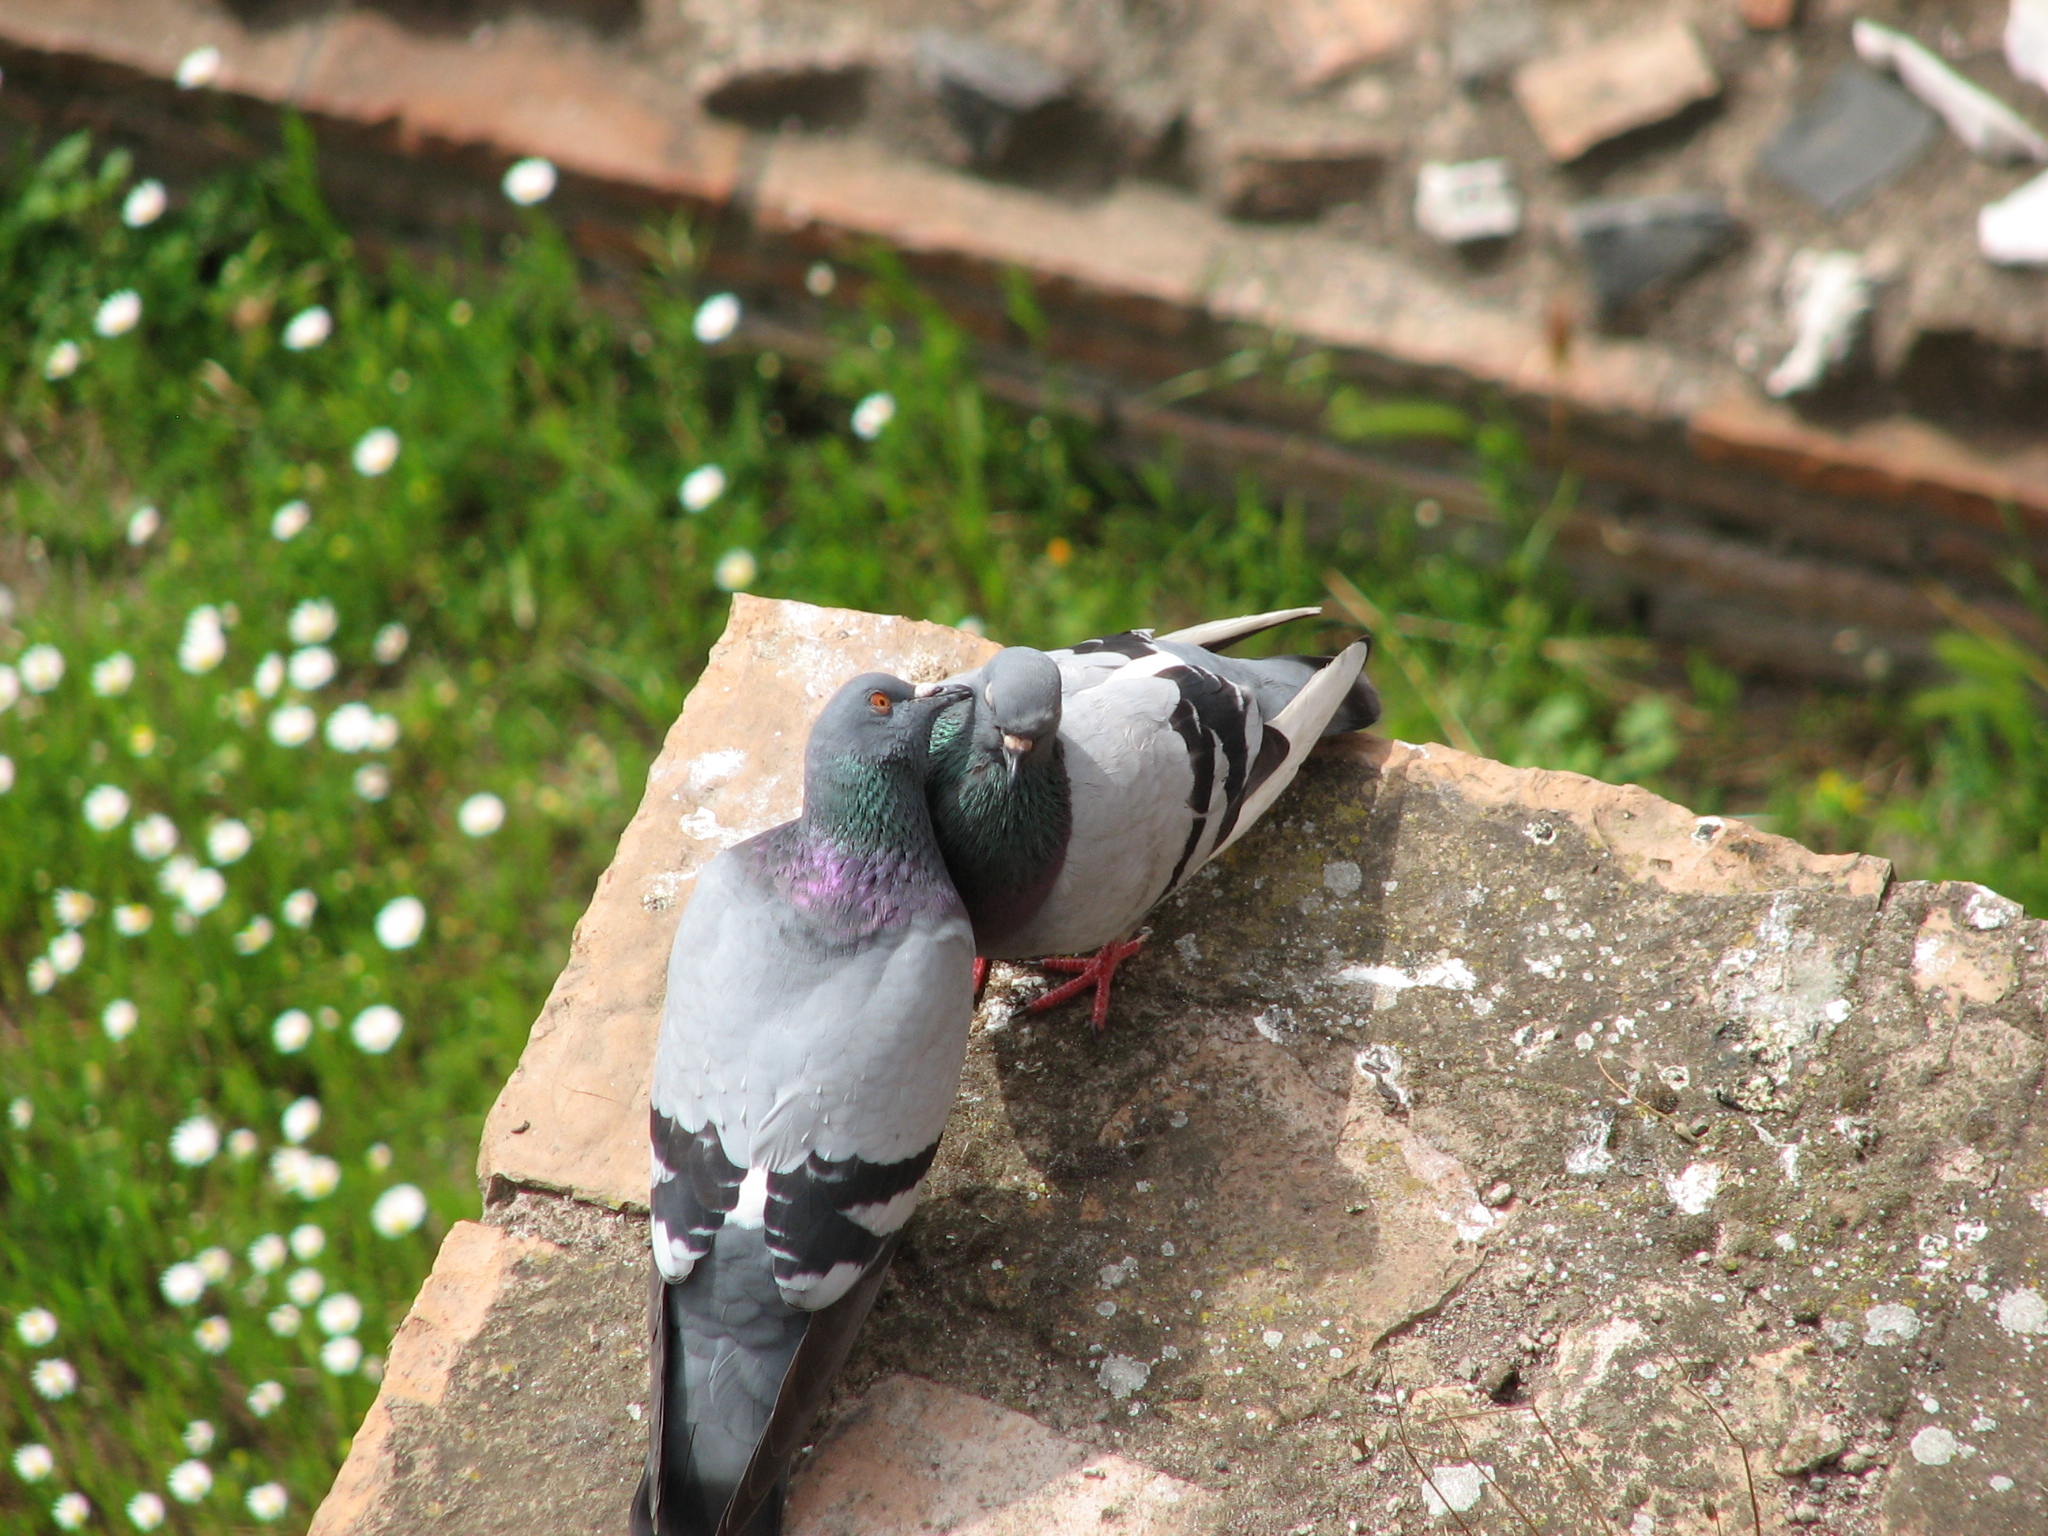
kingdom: Animalia
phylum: Chordata
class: Aves
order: Columbiformes
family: Columbidae
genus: Columba
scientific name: Columba livia
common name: Rock pigeon
